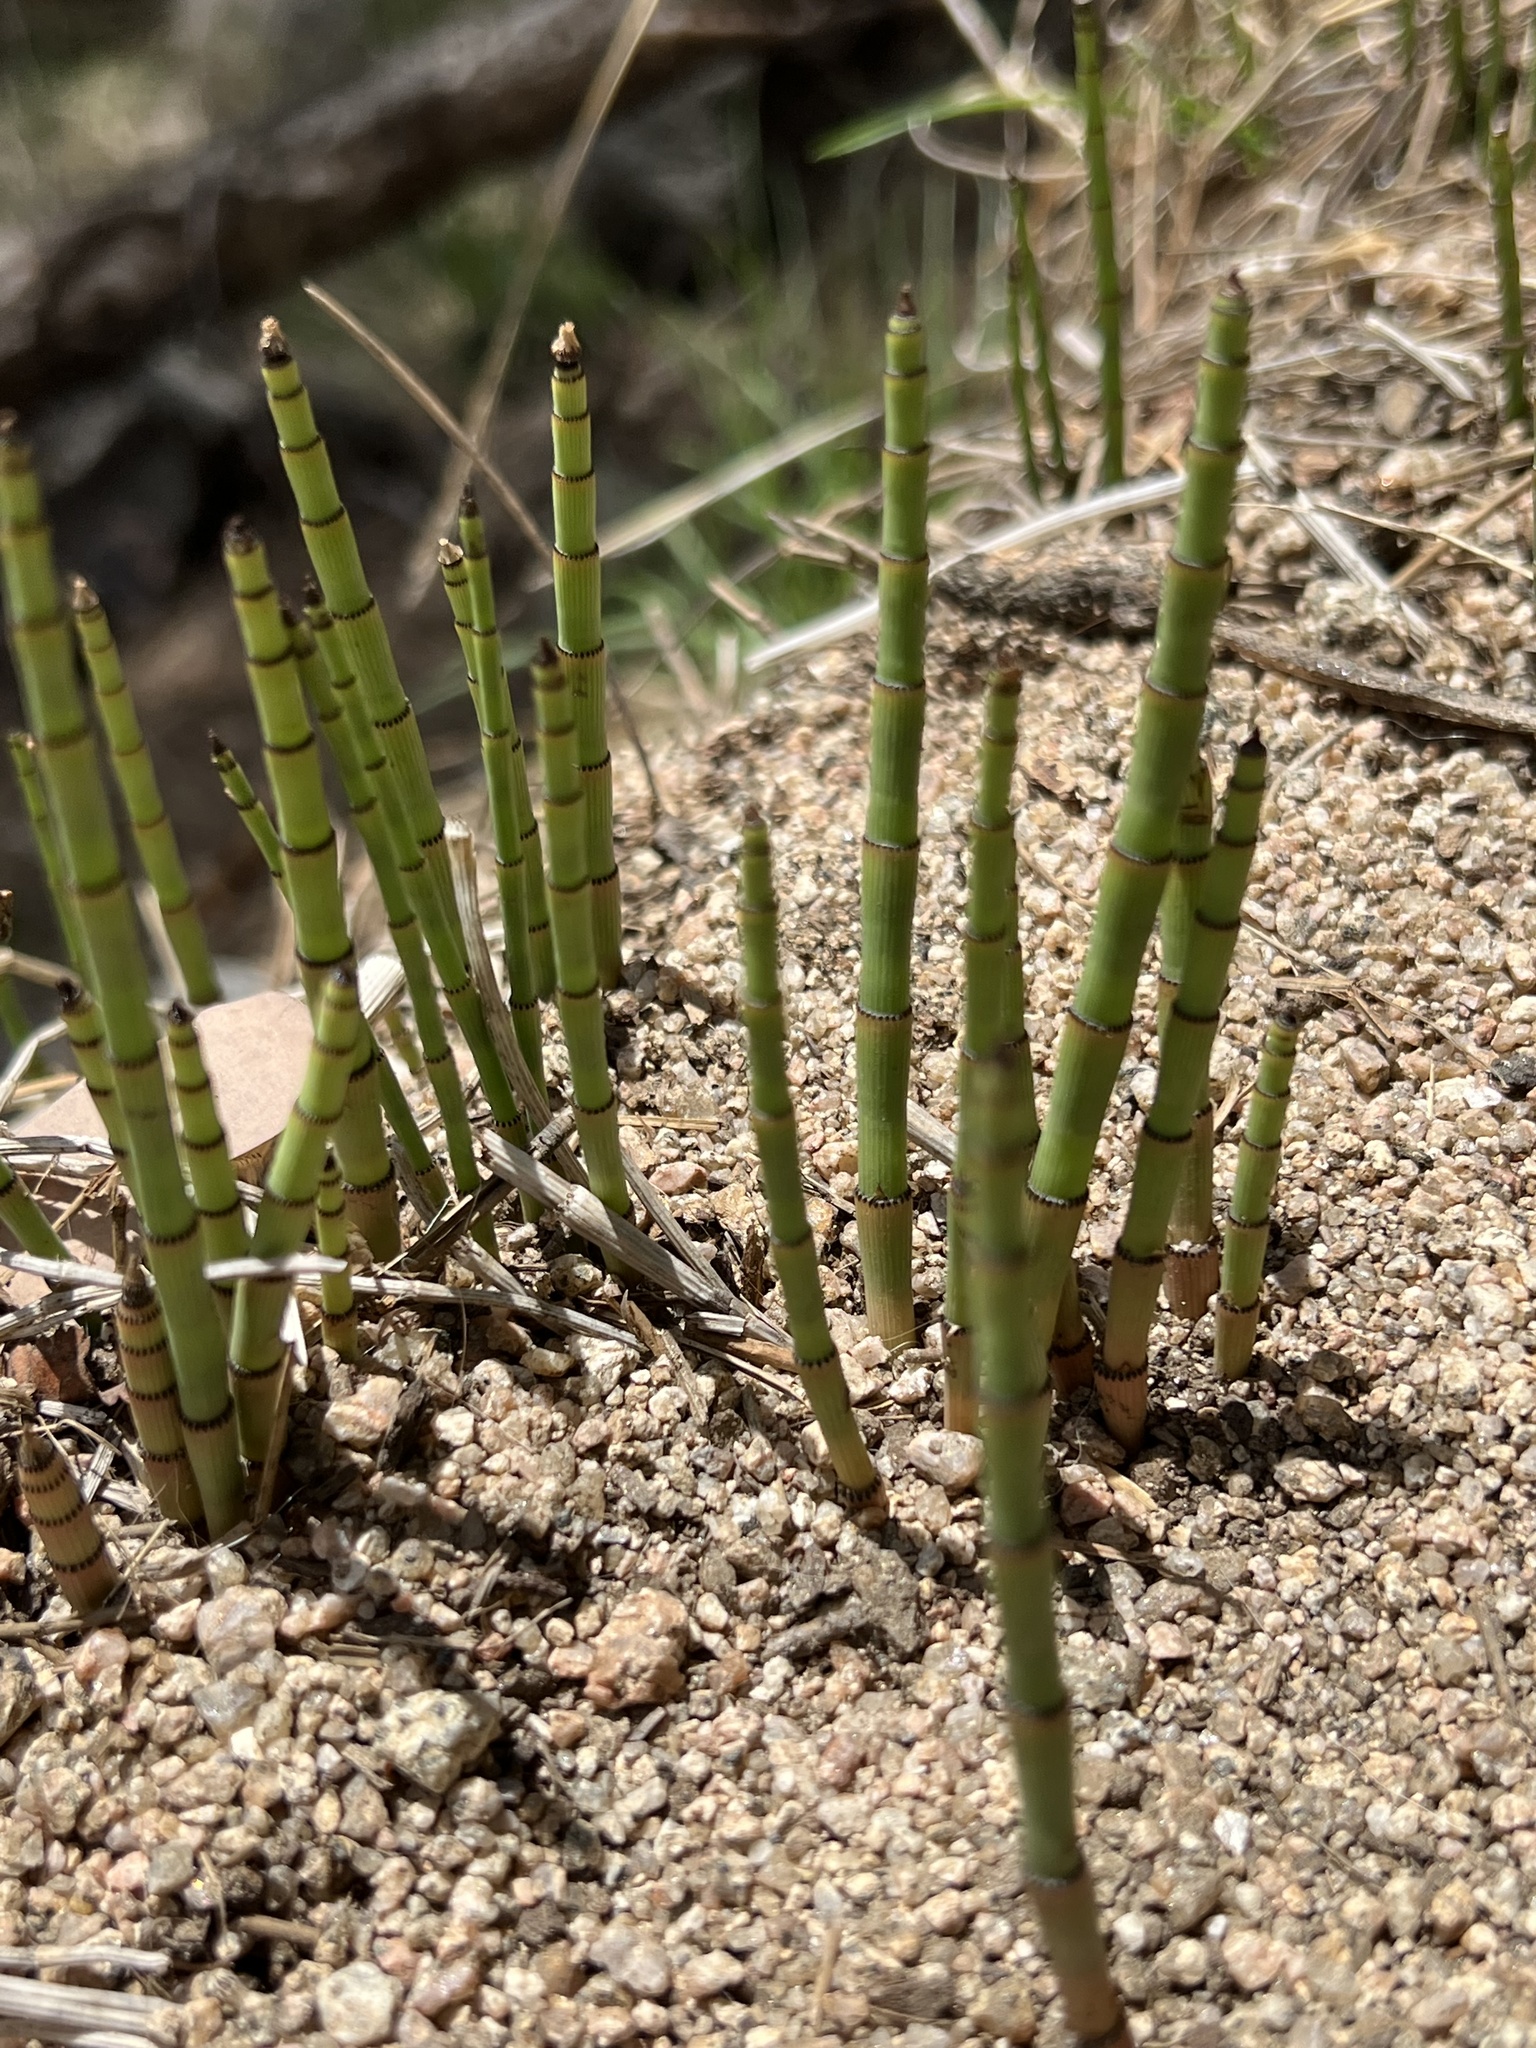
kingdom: Plantae
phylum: Tracheophyta
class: Polypodiopsida
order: Equisetales
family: Equisetaceae
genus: Equisetum
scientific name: Equisetum hyemale
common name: Rough horsetail
